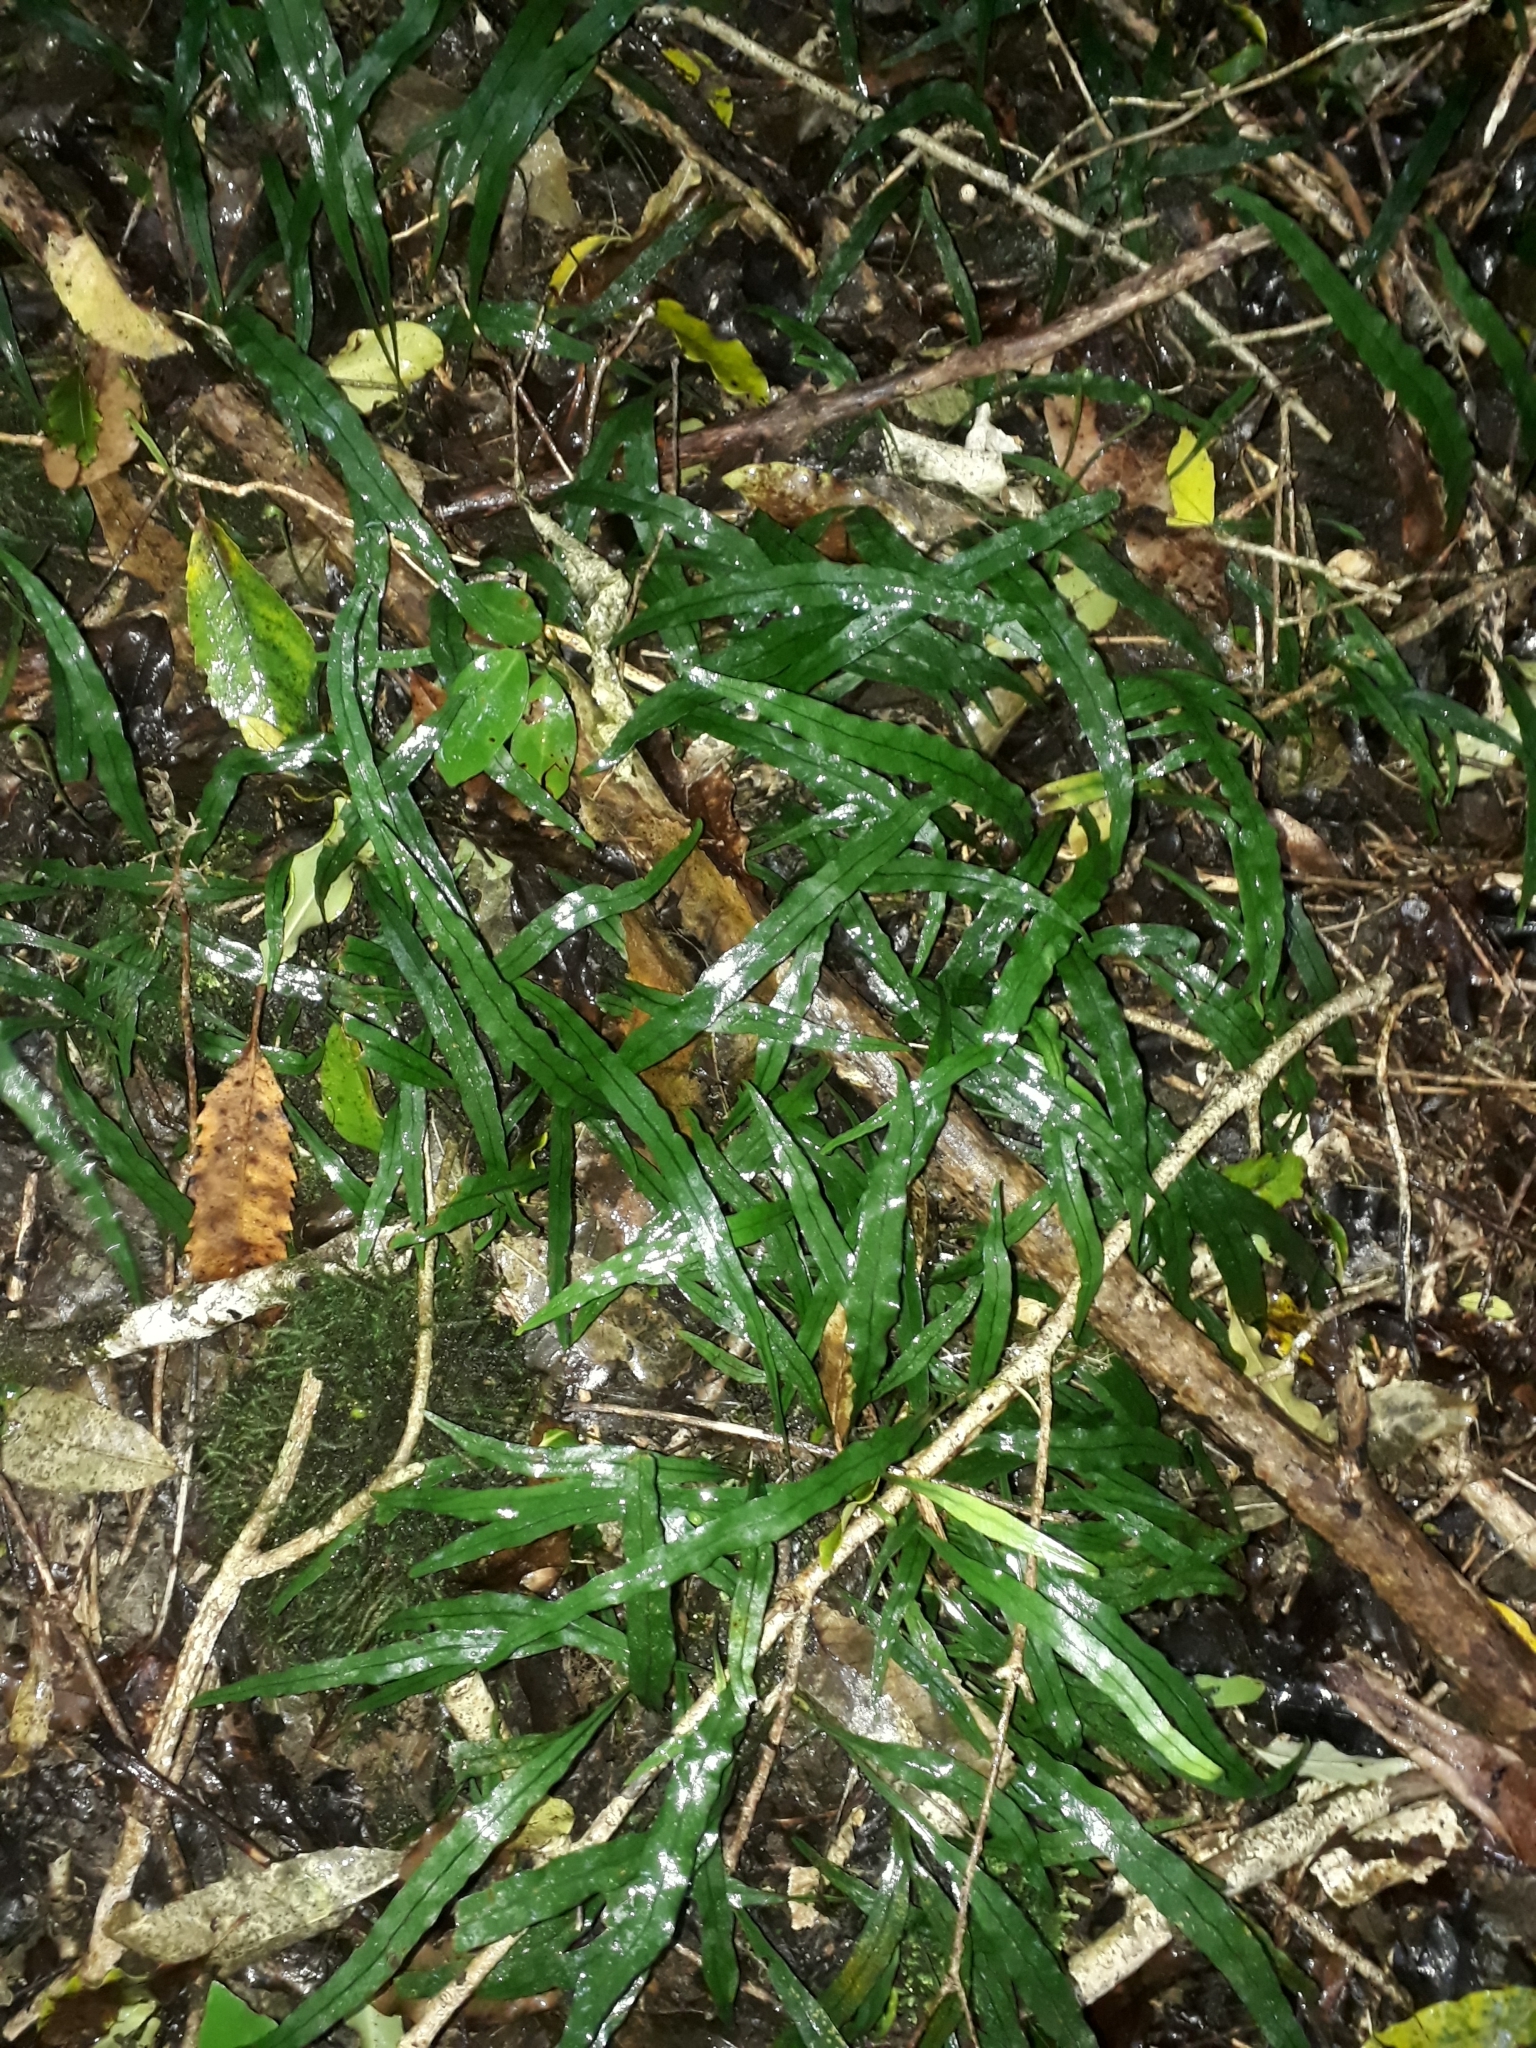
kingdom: Plantae
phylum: Tracheophyta
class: Polypodiopsida
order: Polypodiales
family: Polypodiaceae
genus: Lecanopteris
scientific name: Lecanopteris scandens
